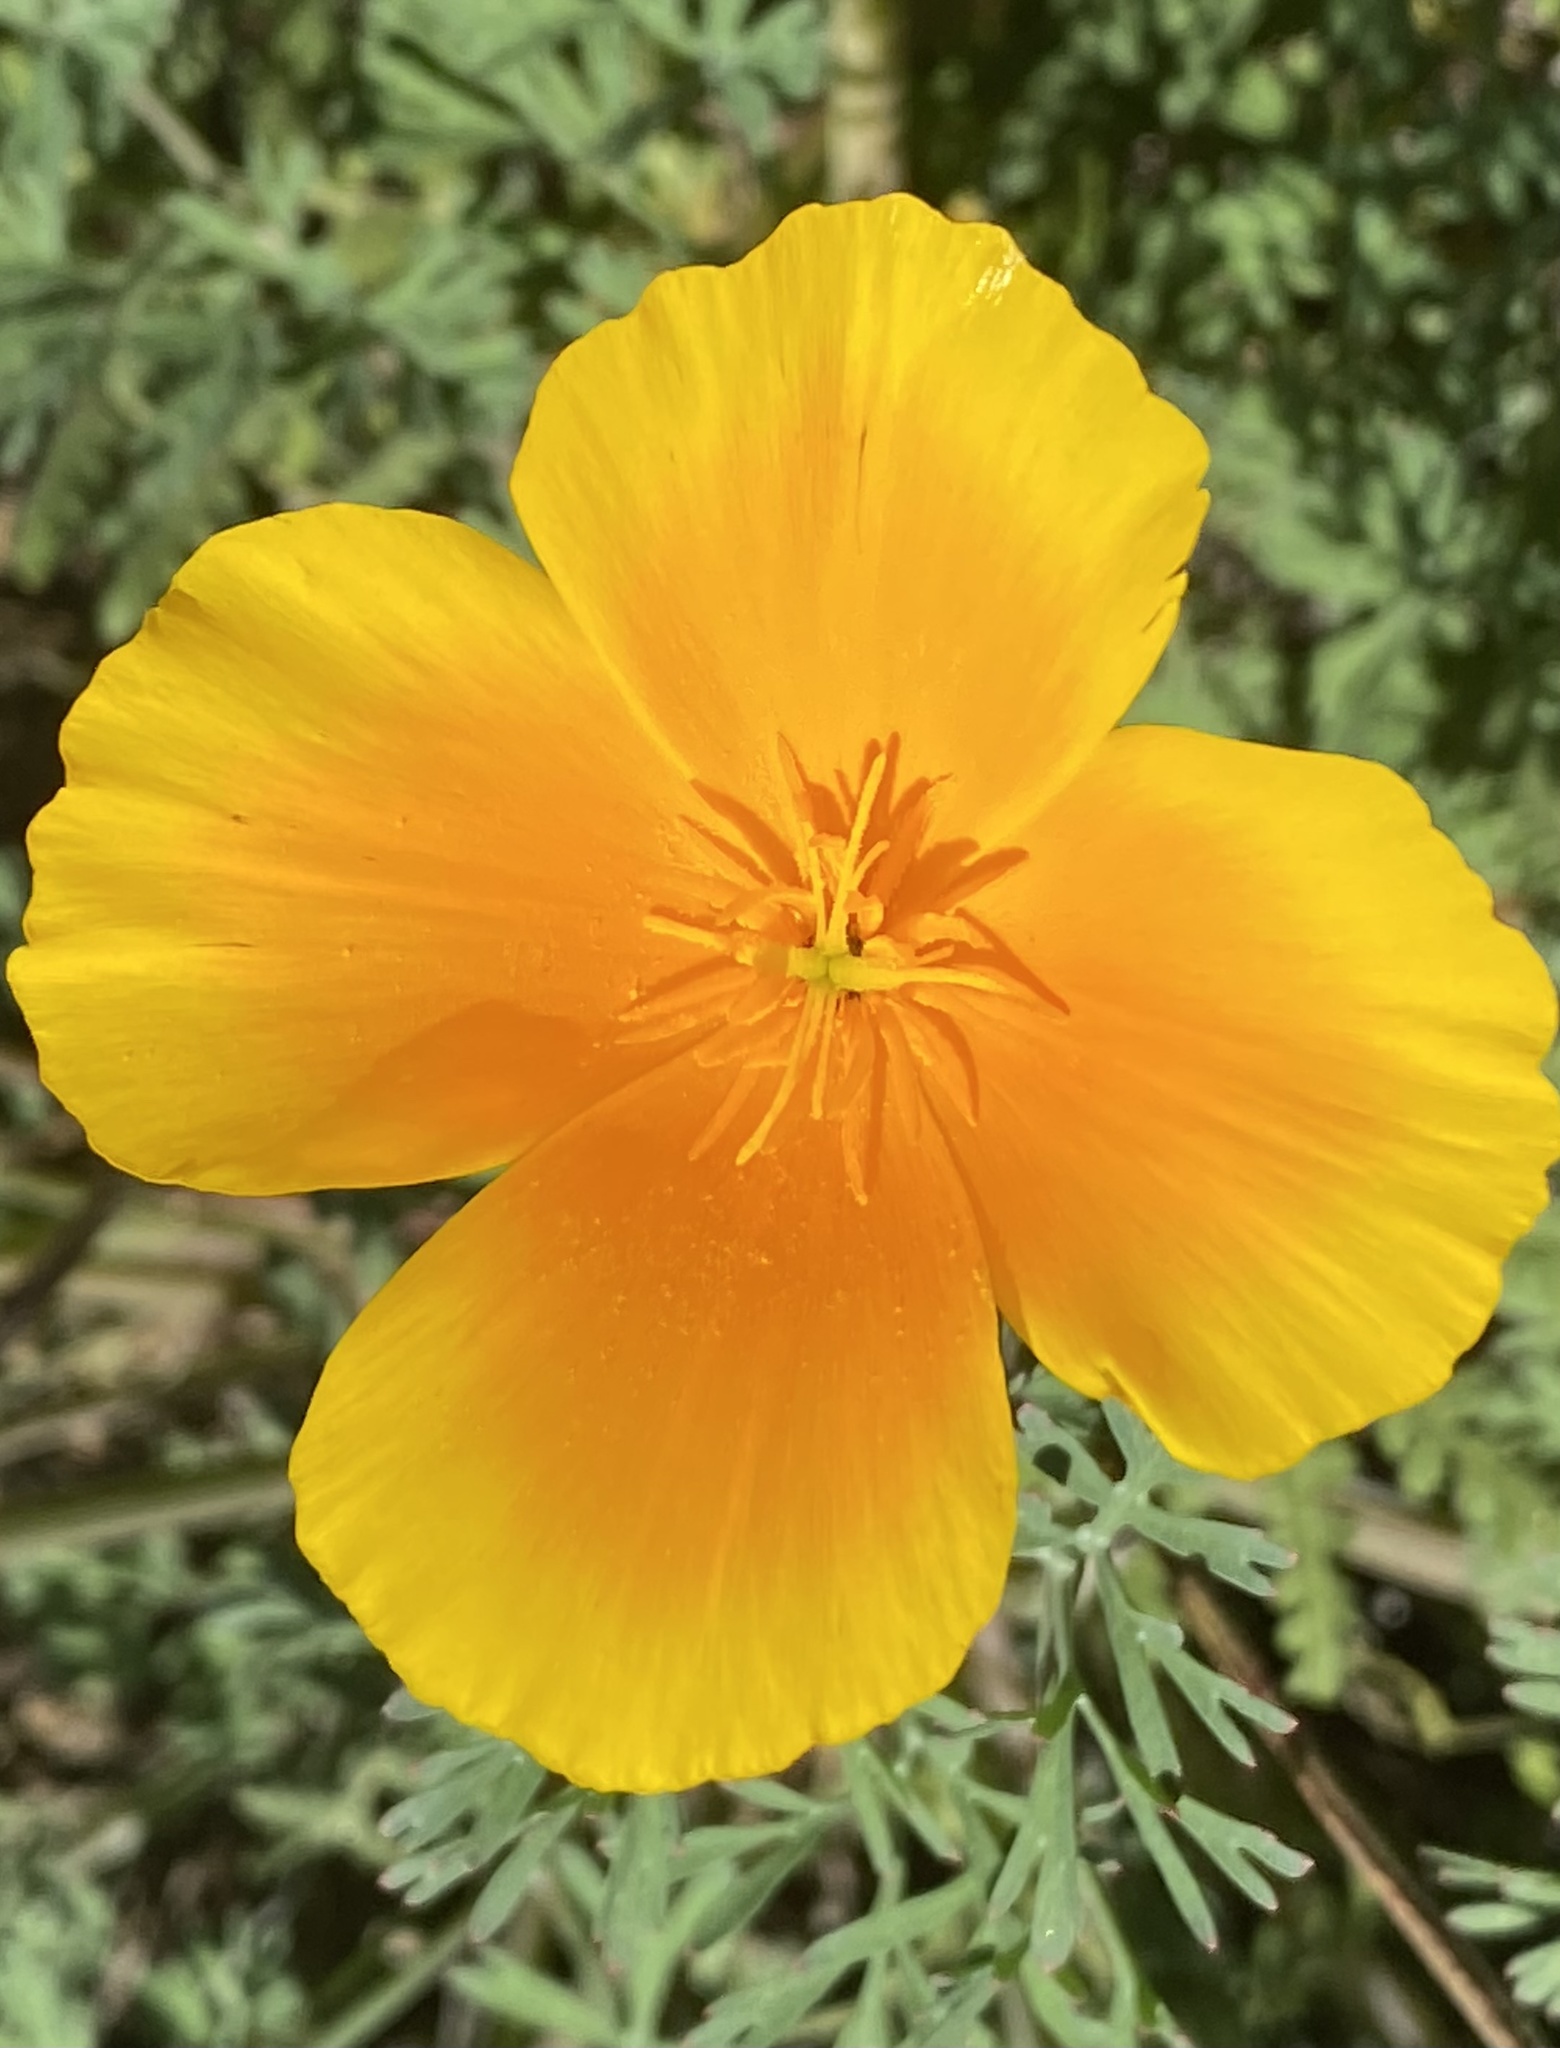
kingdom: Plantae
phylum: Tracheophyta
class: Magnoliopsida
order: Ranunculales
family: Papaveraceae
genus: Eschscholzia
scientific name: Eschscholzia californica
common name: California poppy
